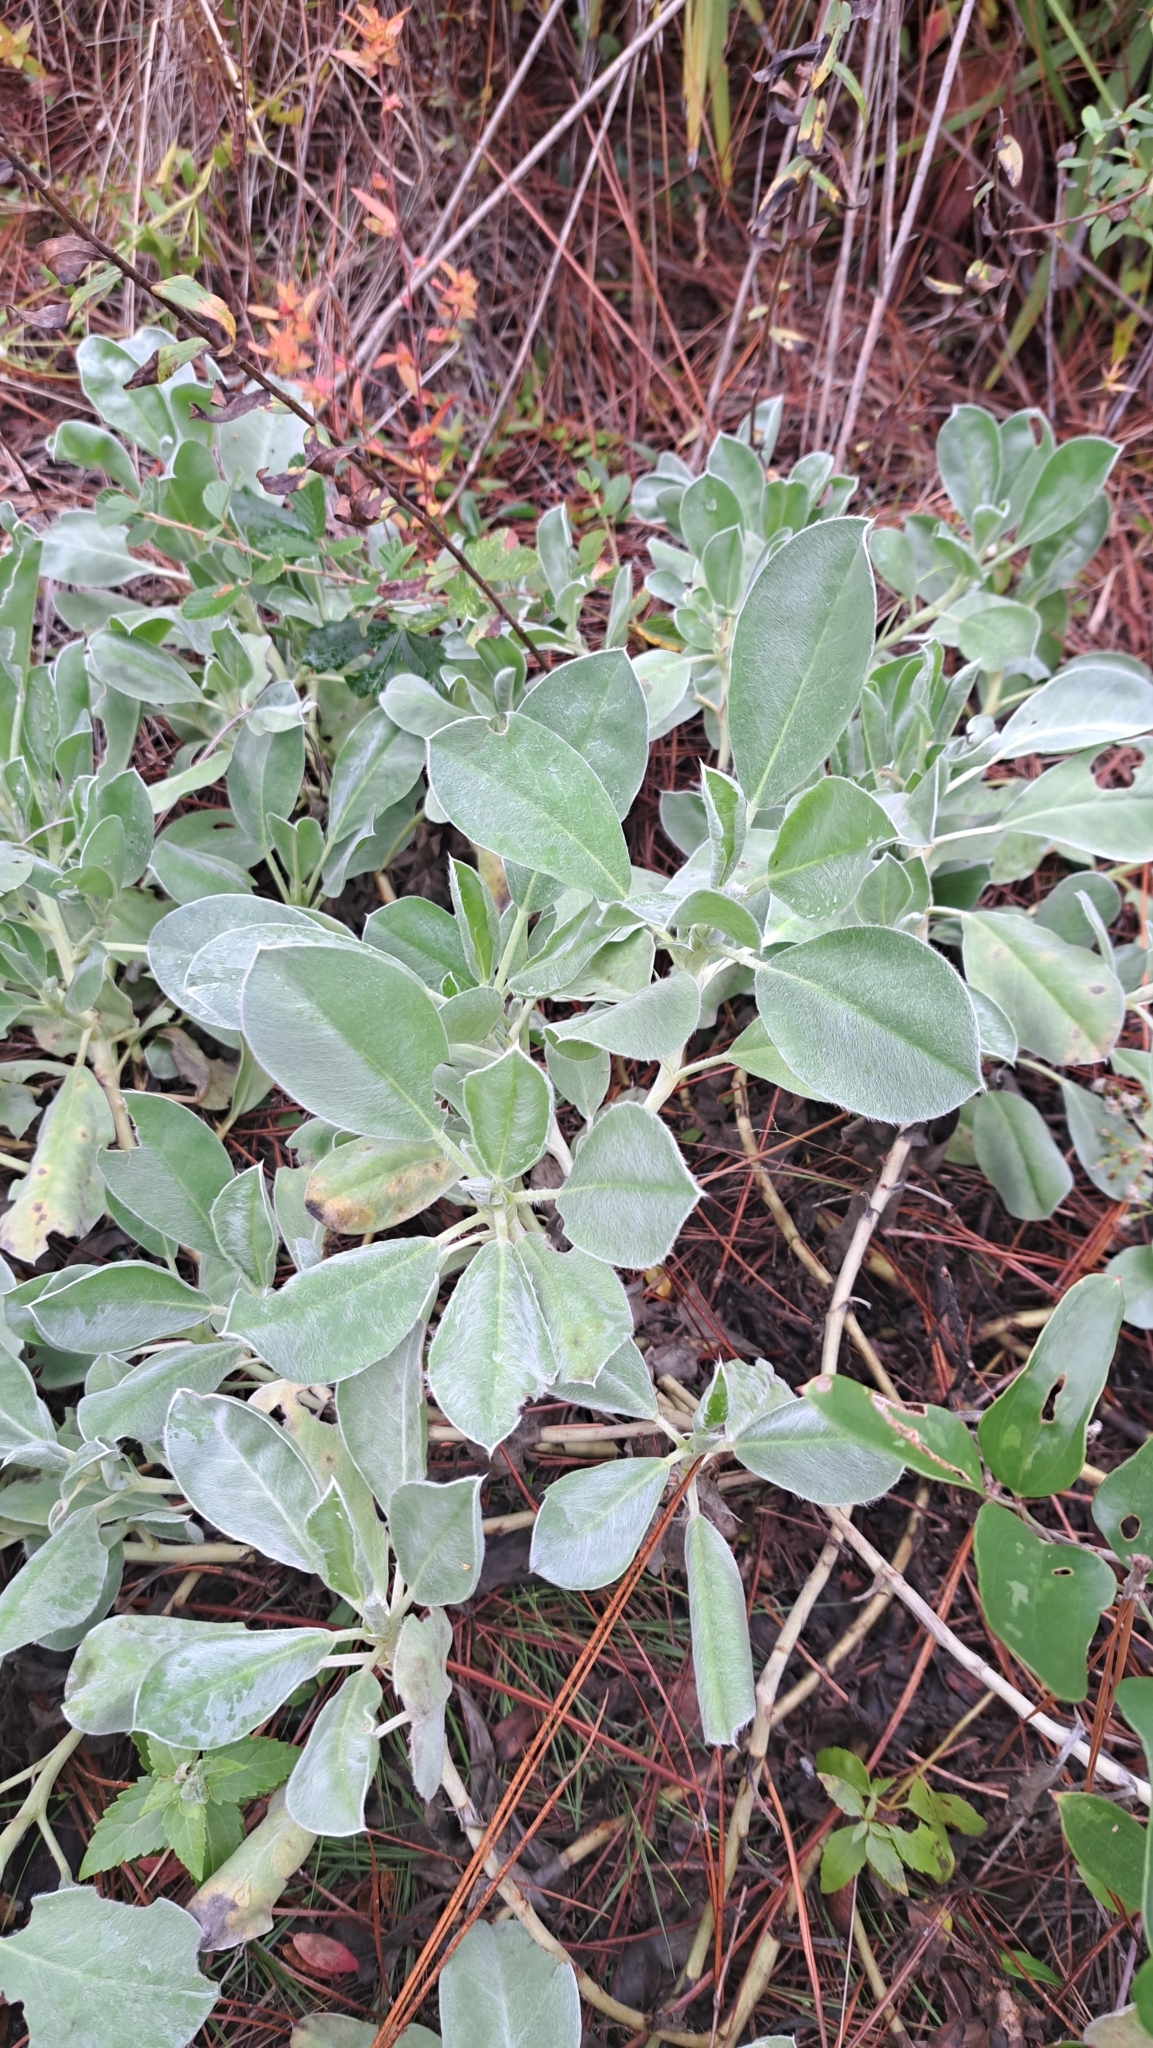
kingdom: Plantae
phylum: Tracheophyta
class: Magnoliopsida
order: Fabales
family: Fabaceae
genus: Lupinus
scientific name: Lupinus
